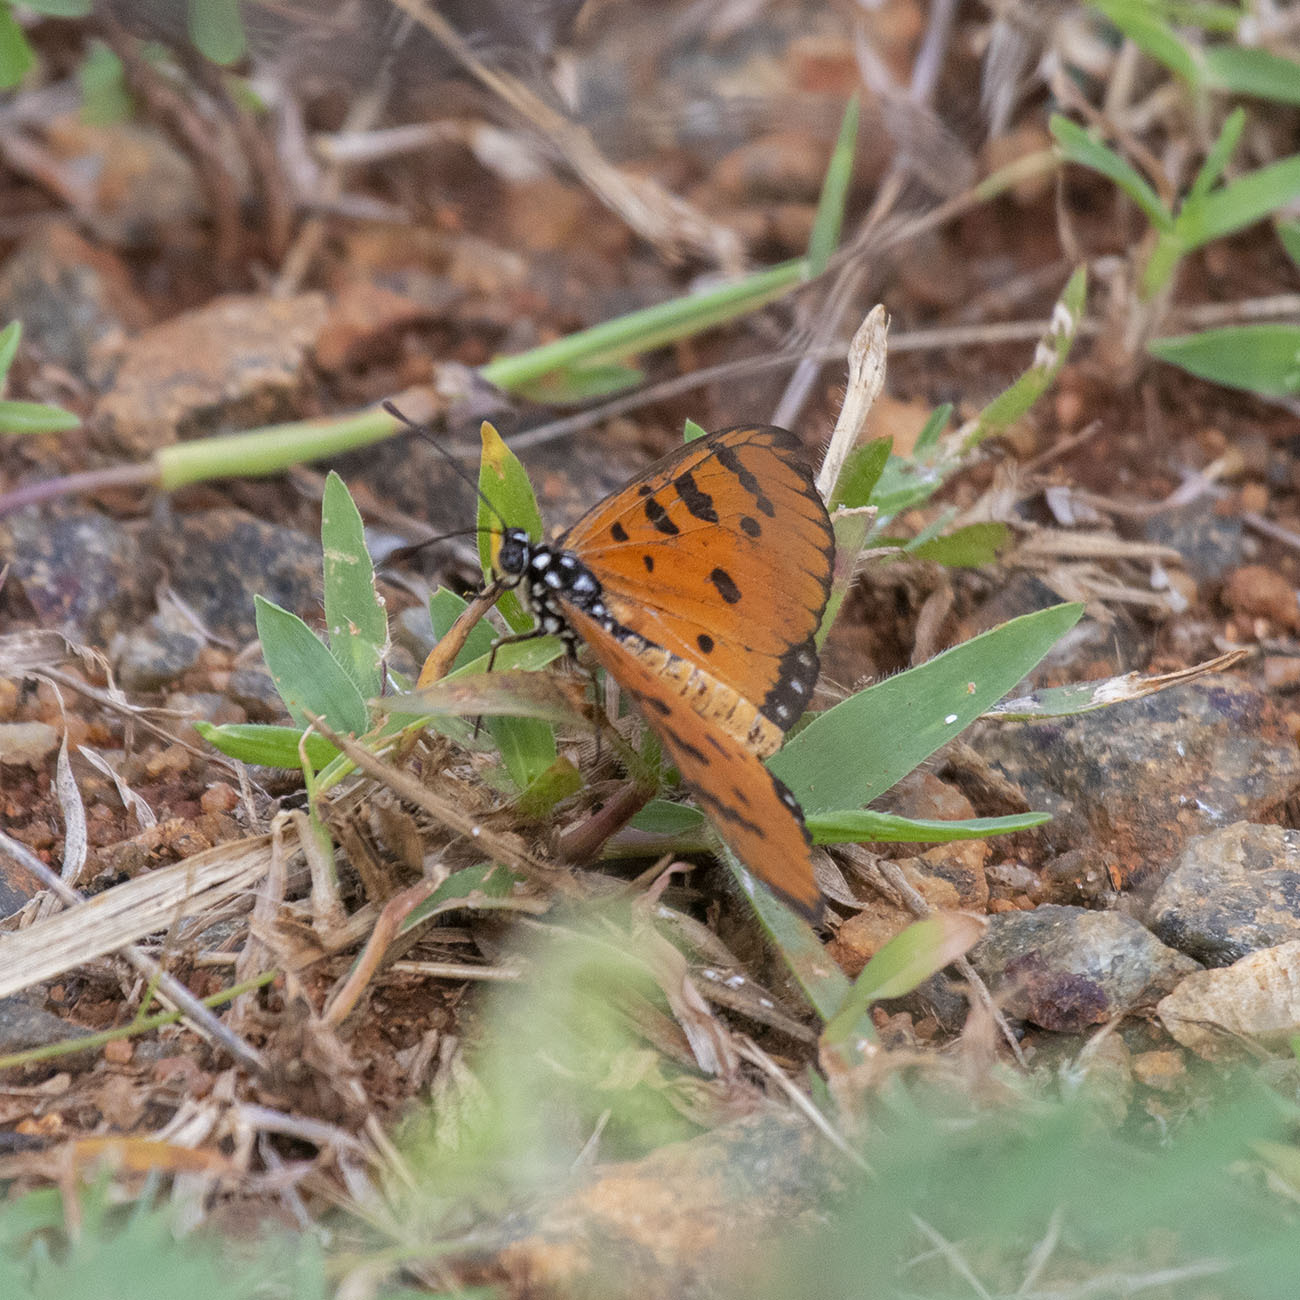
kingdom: Animalia
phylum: Arthropoda
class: Insecta
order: Lepidoptera
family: Nymphalidae
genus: Acraea
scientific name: Acraea terpsicore
